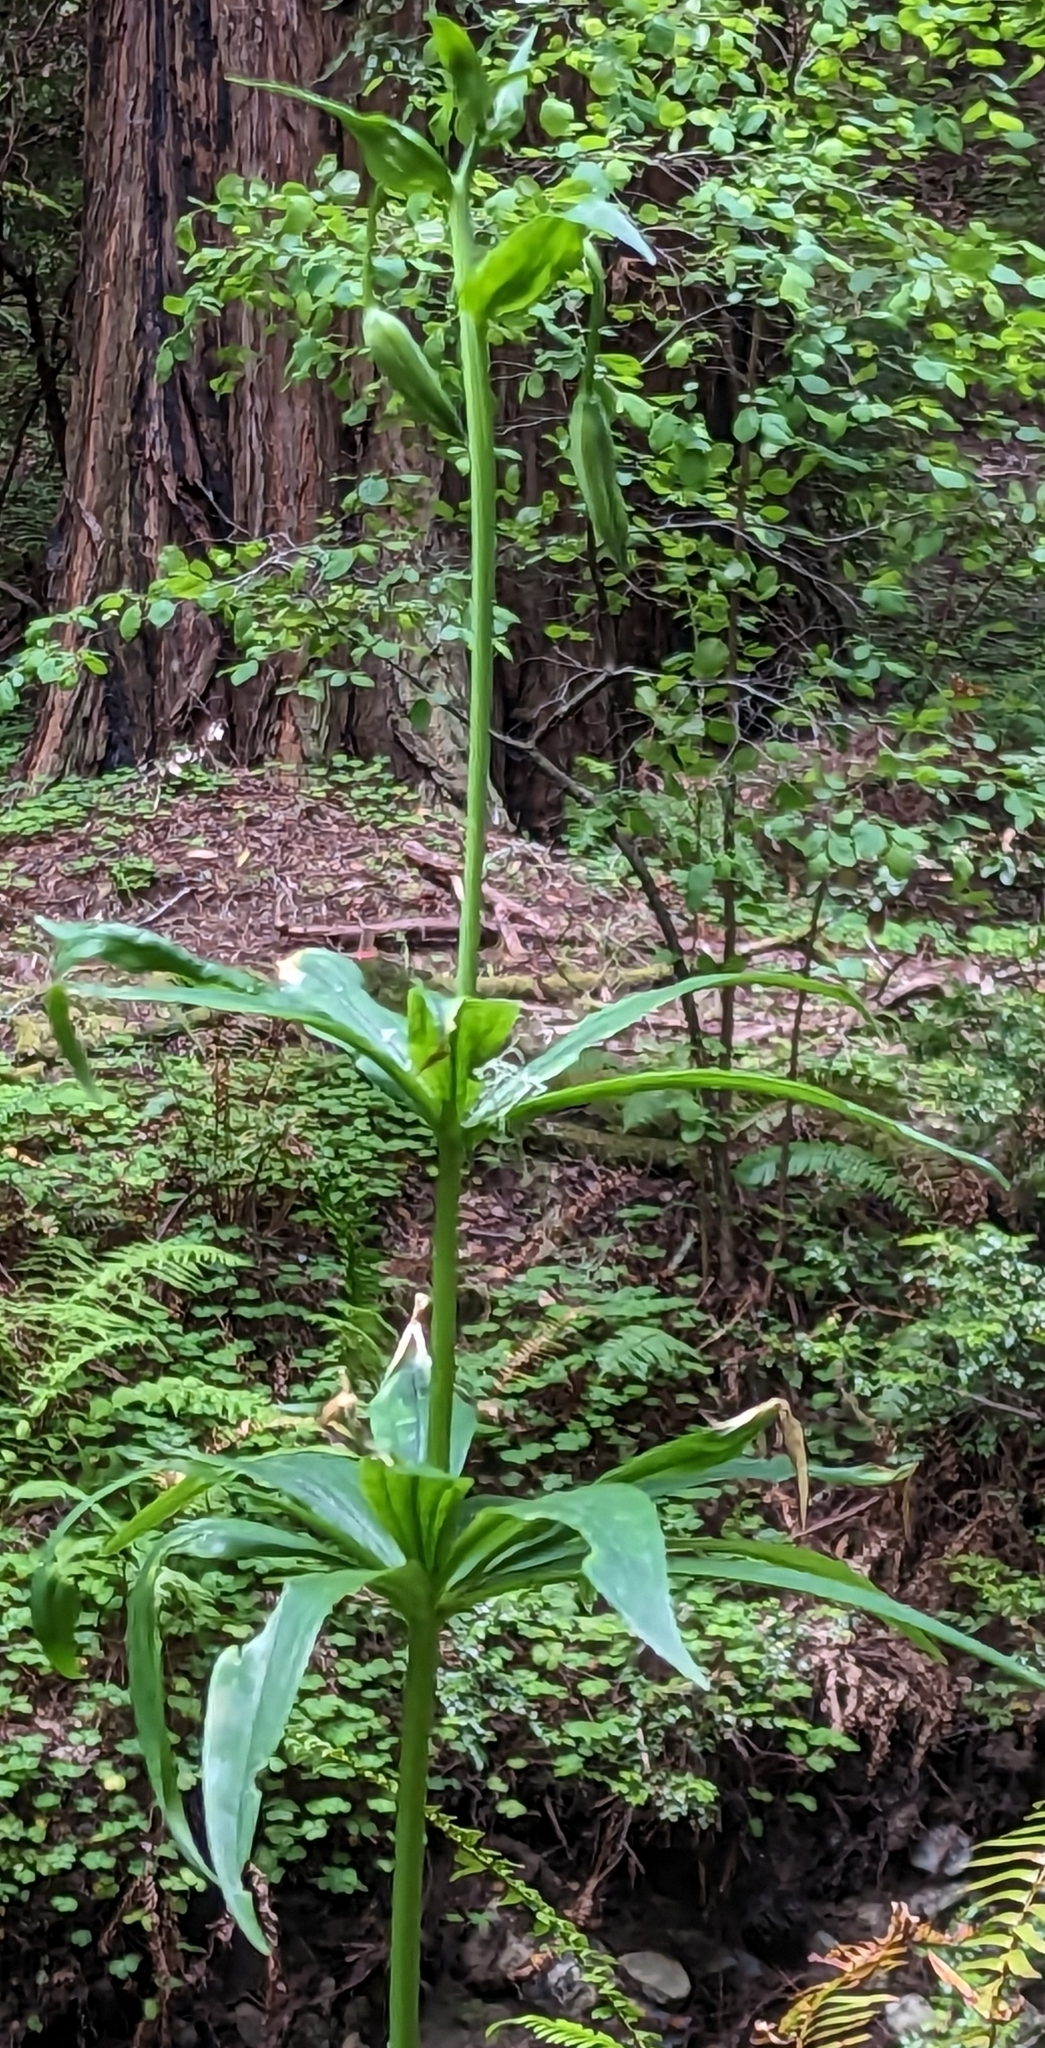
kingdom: Plantae
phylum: Tracheophyta
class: Liliopsida
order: Liliales
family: Liliaceae
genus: Lilium
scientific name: Lilium pardalinum
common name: Panther lily
